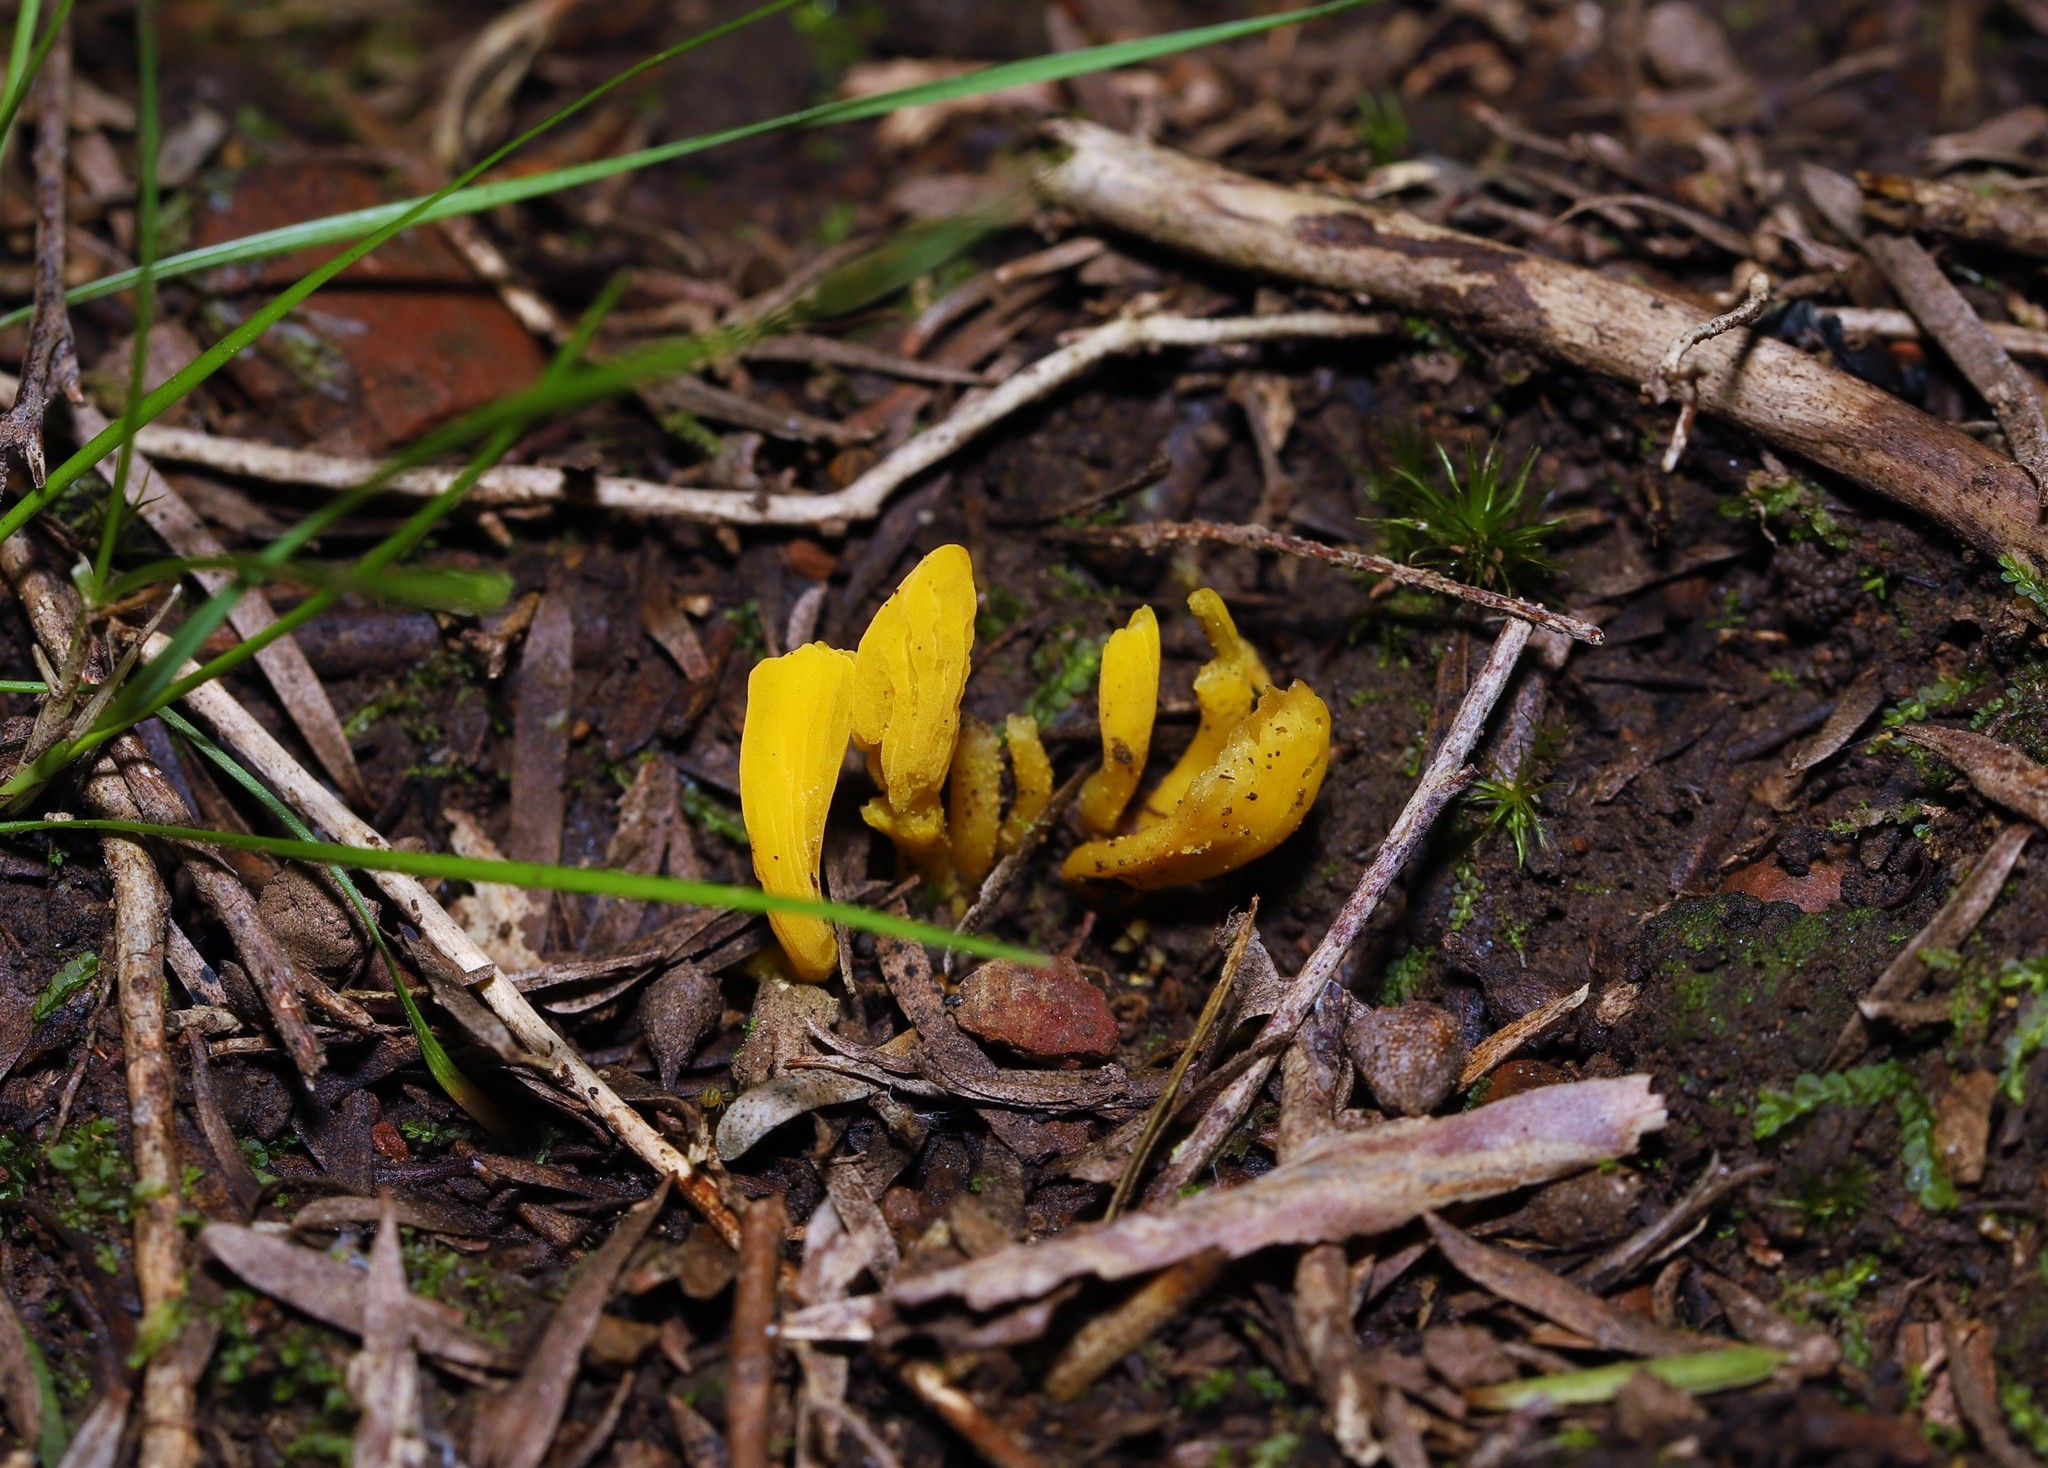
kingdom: Fungi
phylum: Basidiomycota
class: Agaricomycetes
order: Agaricales
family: Clavariaceae
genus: Clavulinopsis
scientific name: Clavulinopsis amoena
